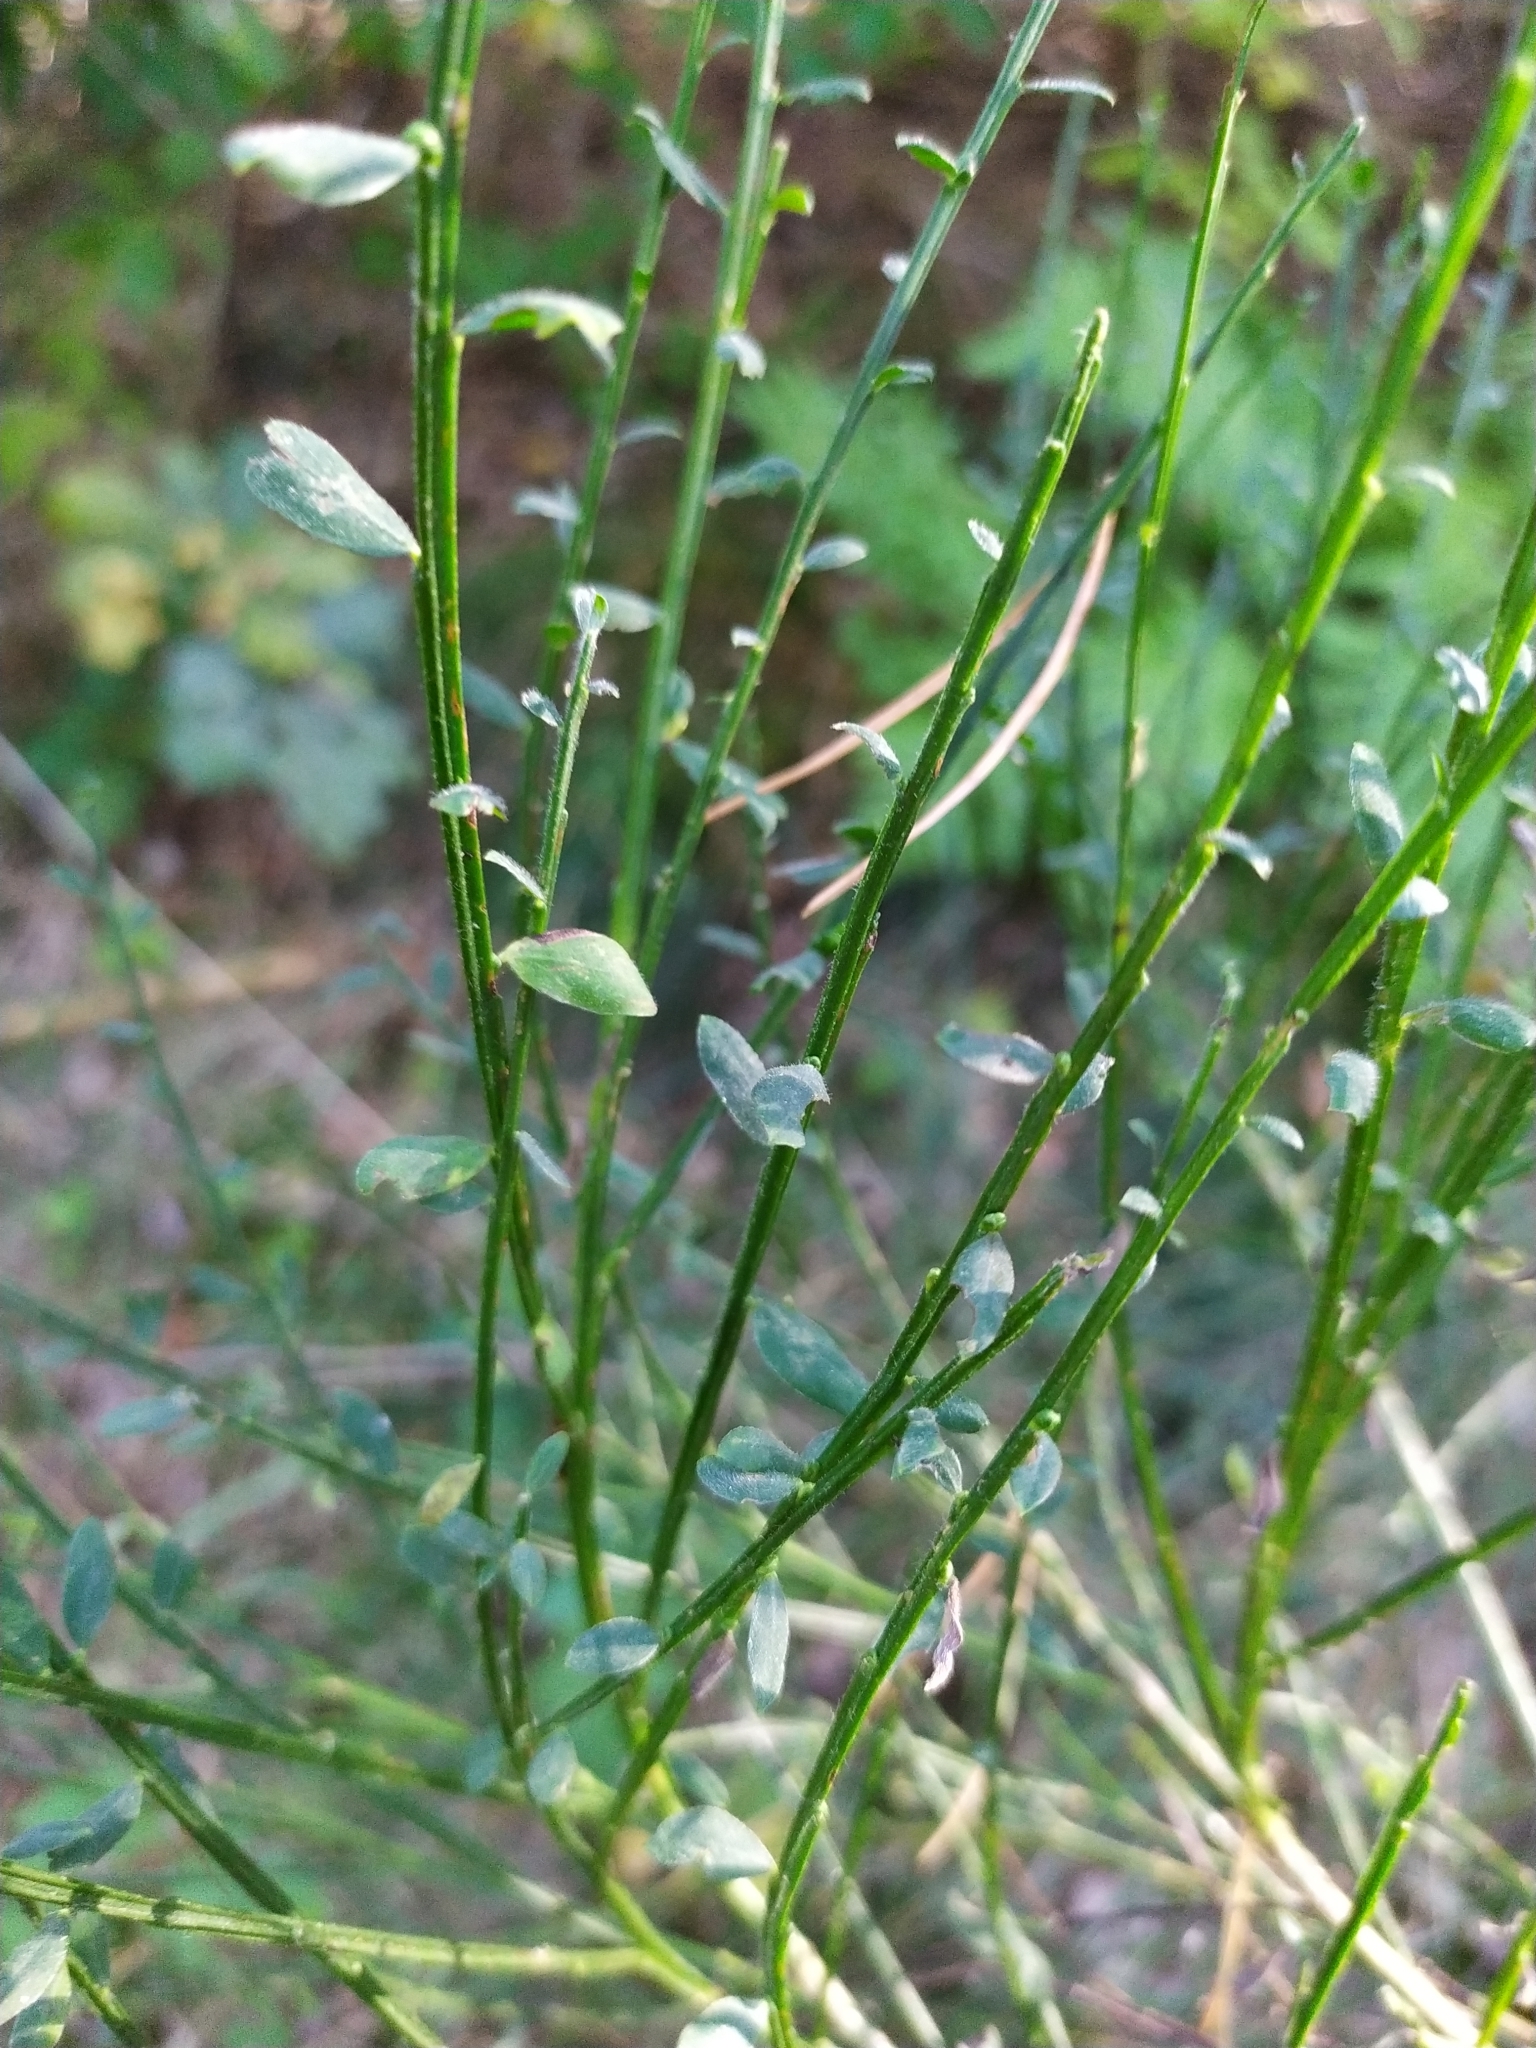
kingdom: Plantae
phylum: Tracheophyta
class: Magnoliopsida
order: Fabales
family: Fabaceae
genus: Cytisus
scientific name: Cytisus scoparius
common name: Scotch broom
